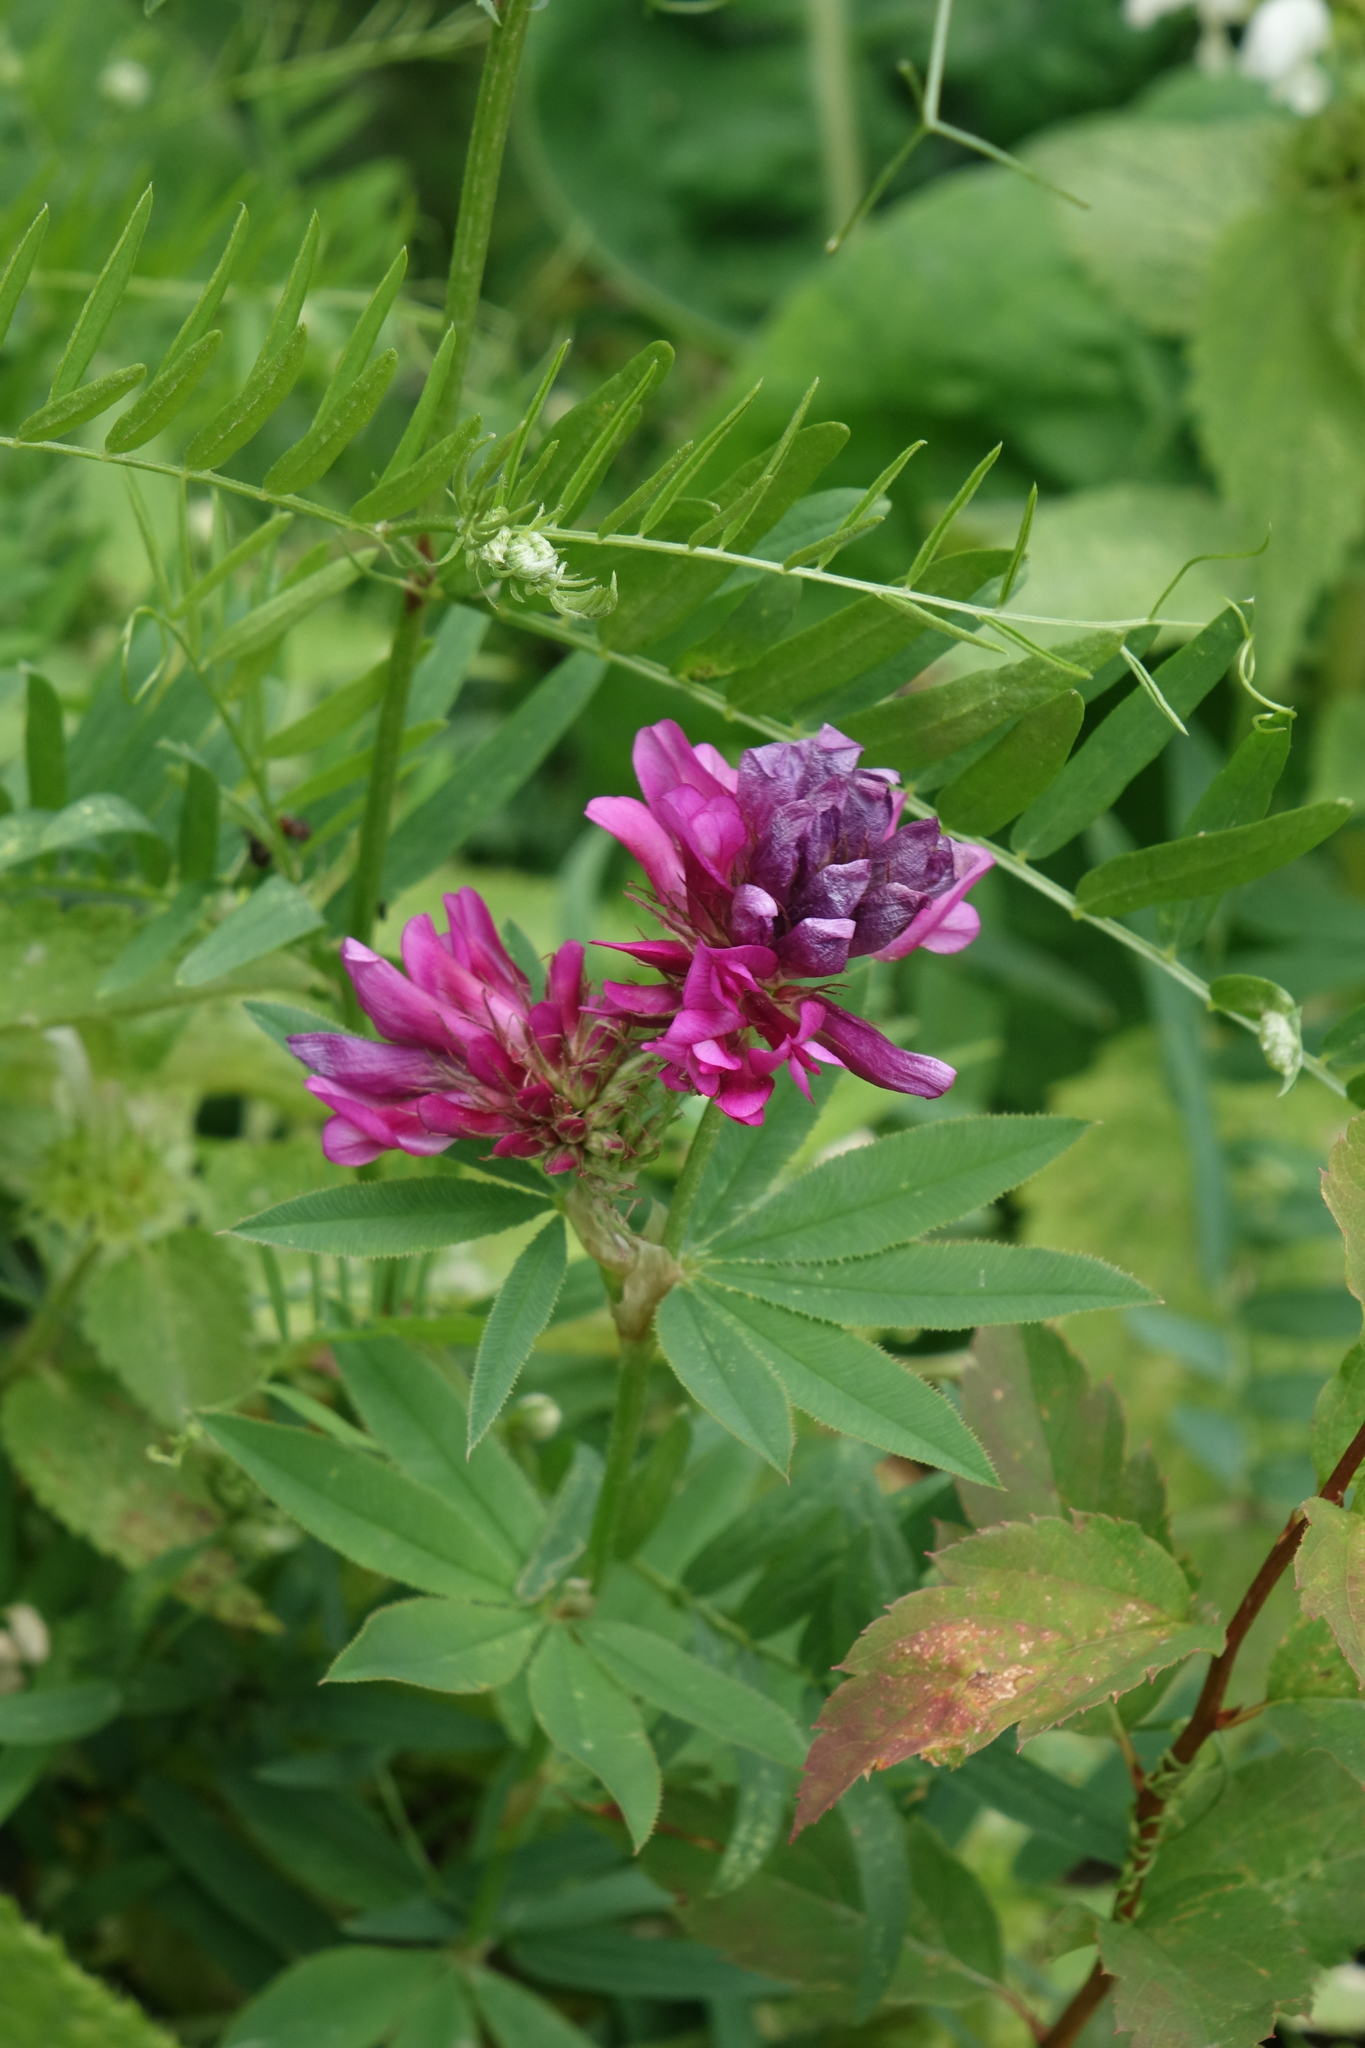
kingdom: Plantae
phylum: Tracheophyta
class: Magnoliopsida
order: Fabales
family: Fabaceae
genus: Trifolium
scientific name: Trifolium lupinaster
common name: Lupine clover
